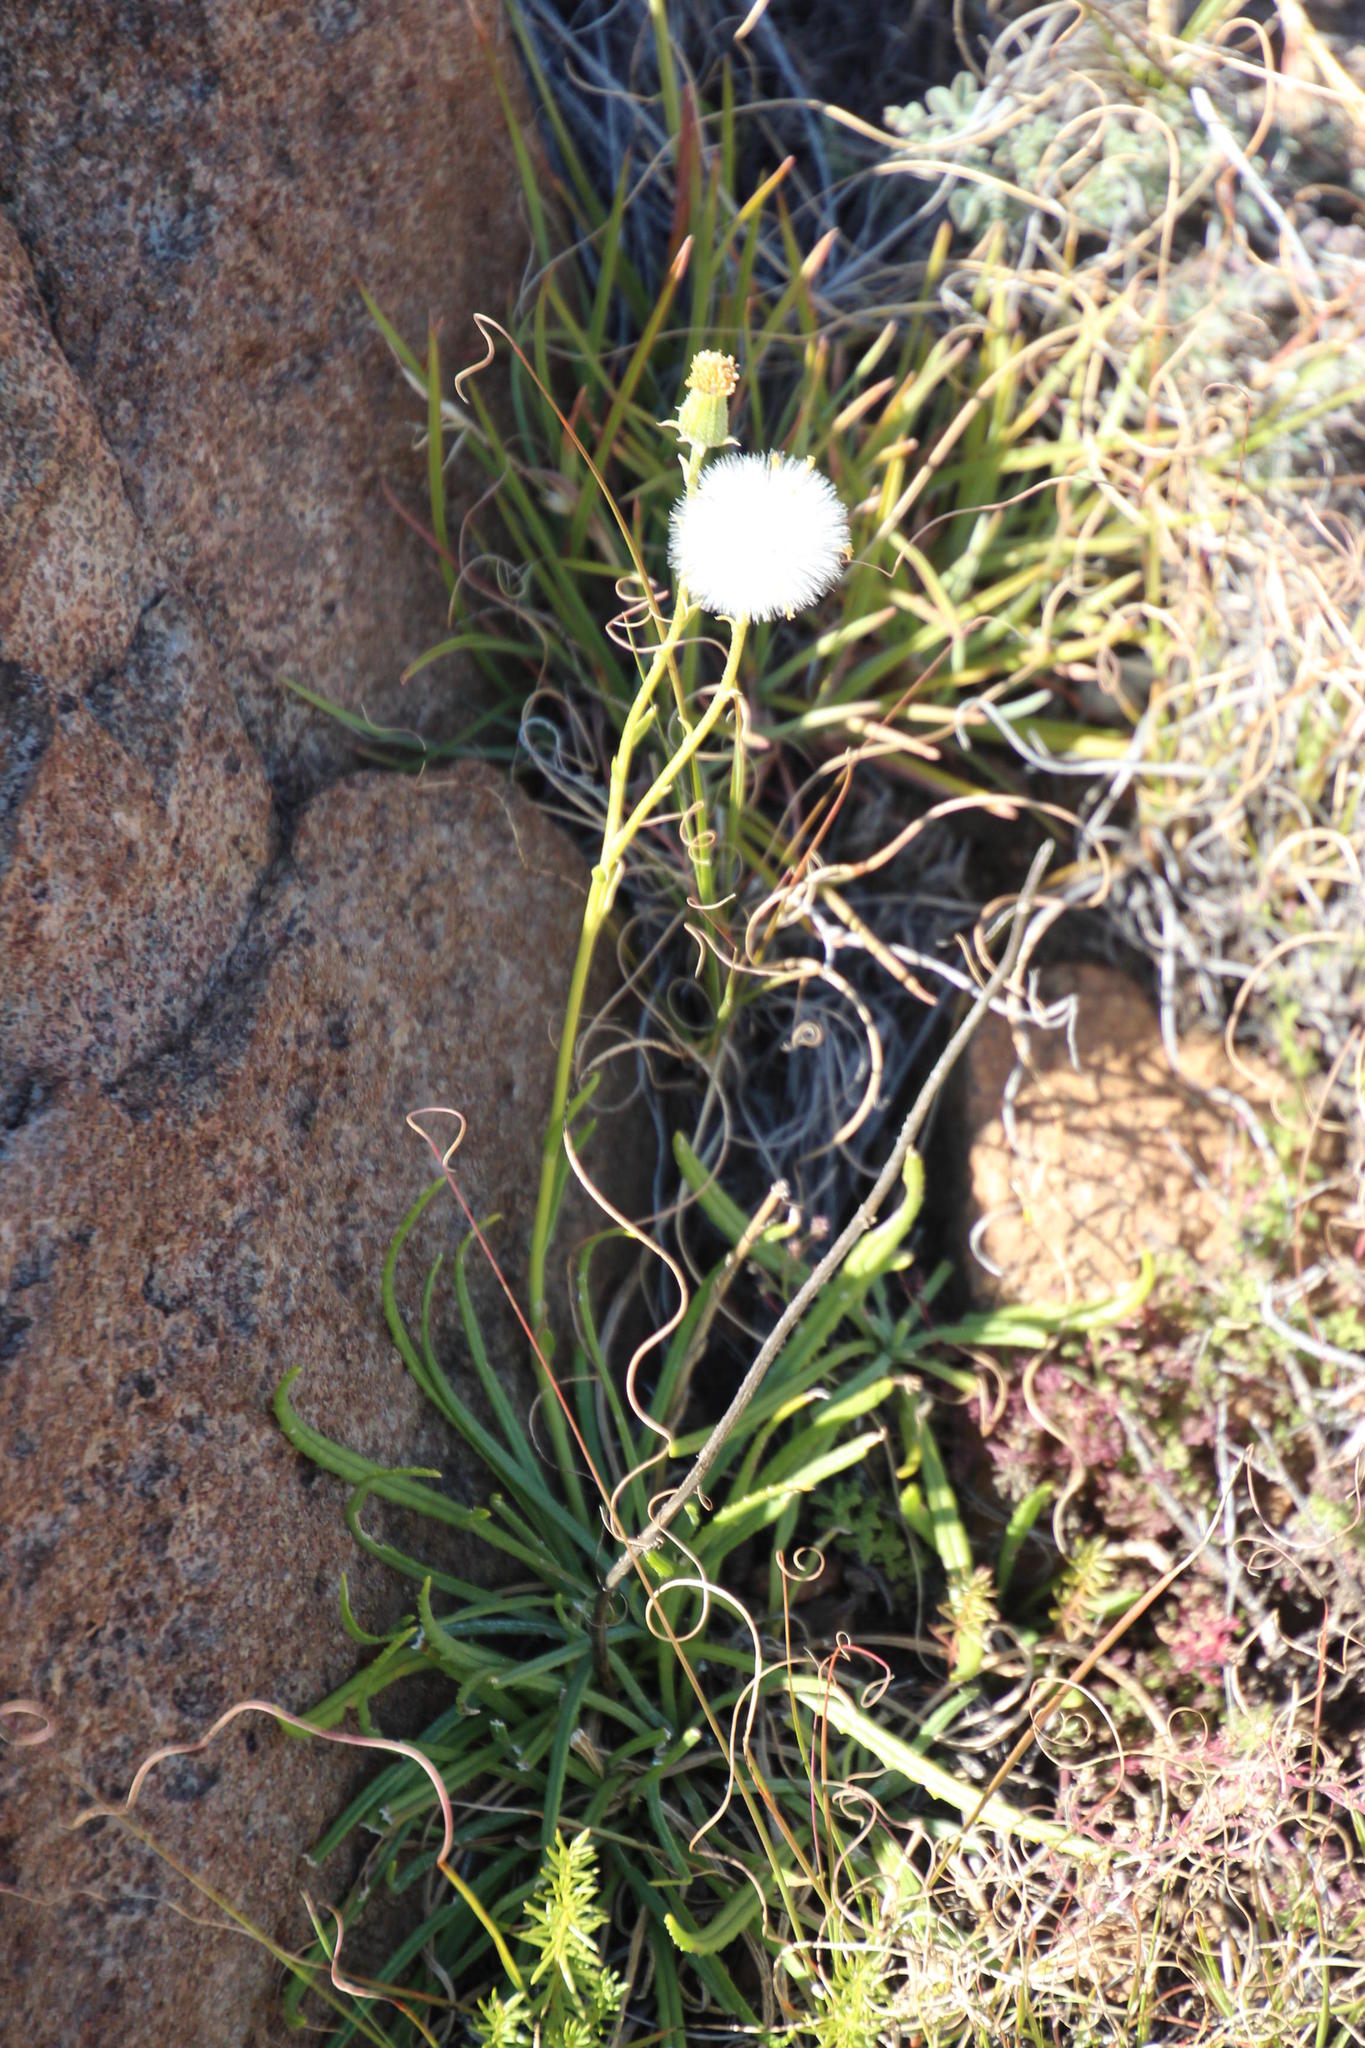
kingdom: Plantae
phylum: Tracheophyta
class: Magnoliopsida
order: Asterales
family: Asteraceae
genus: Senecio
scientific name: Senecio asperulus
